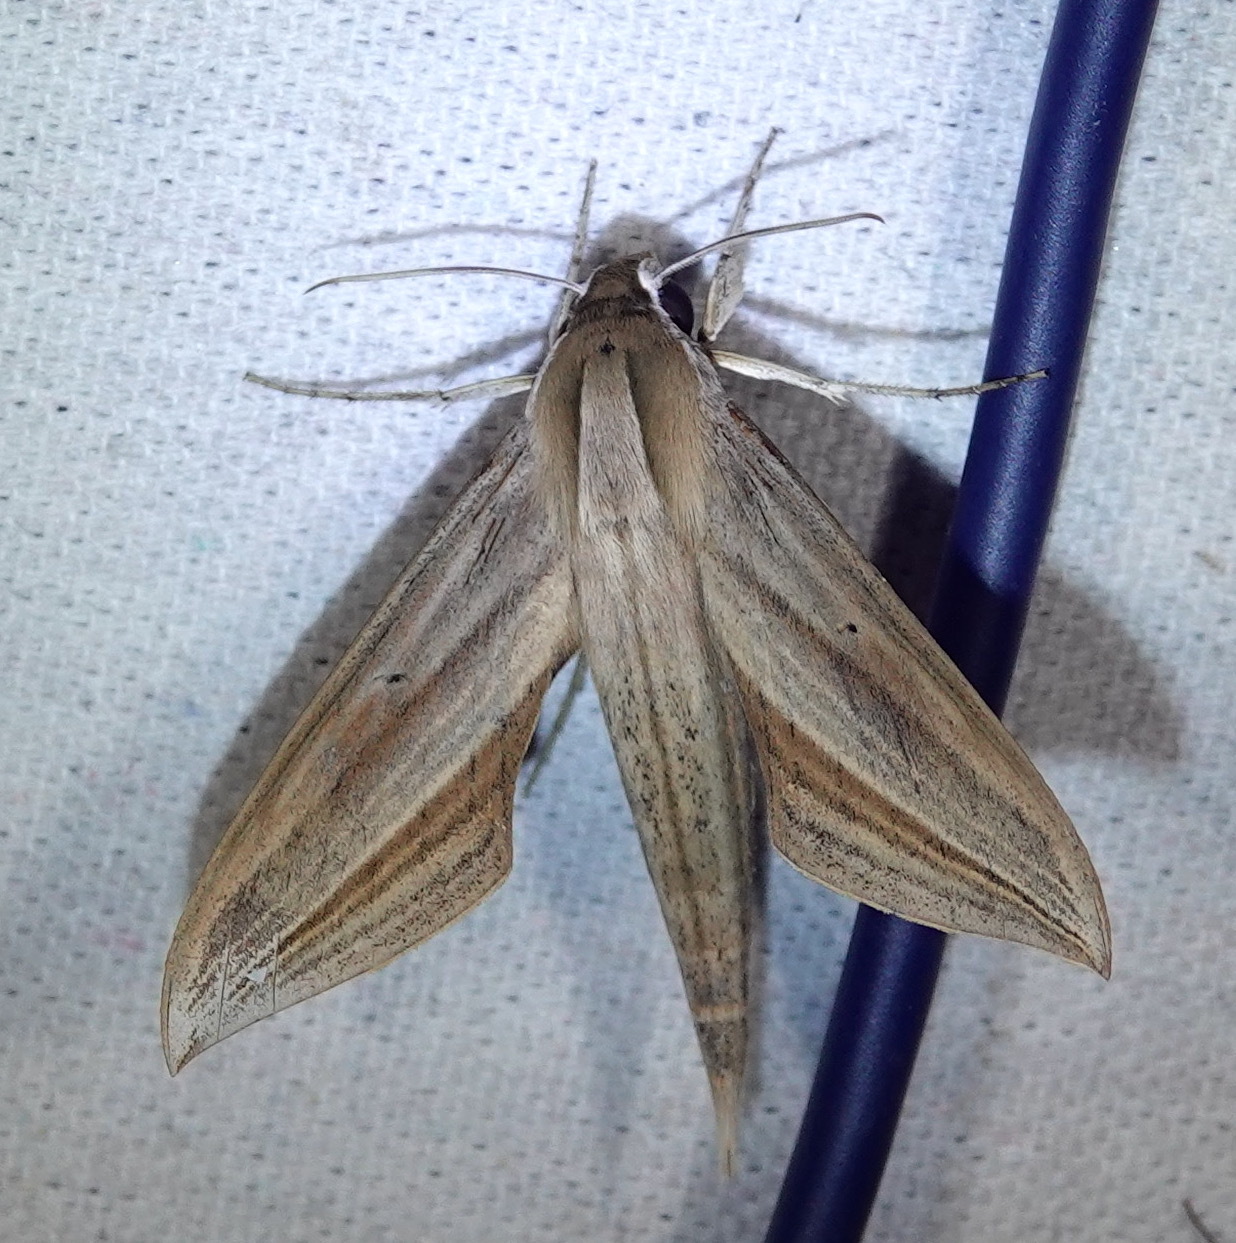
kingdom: Animalia
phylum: Arthropoda
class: Insecta
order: Lepidoptera
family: Sphingidae
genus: Xylophanes
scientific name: Xylophanes neoptolemus
